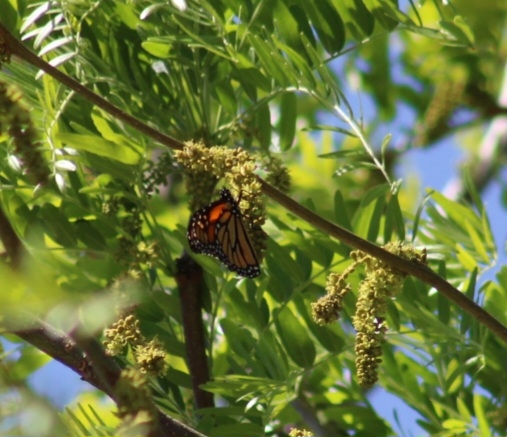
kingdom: Animalia
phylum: Arthropoda
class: Insecta
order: Lepidoptera
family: Nymphalidae
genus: Danaus
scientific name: Danaus plexippus
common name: Monarch
